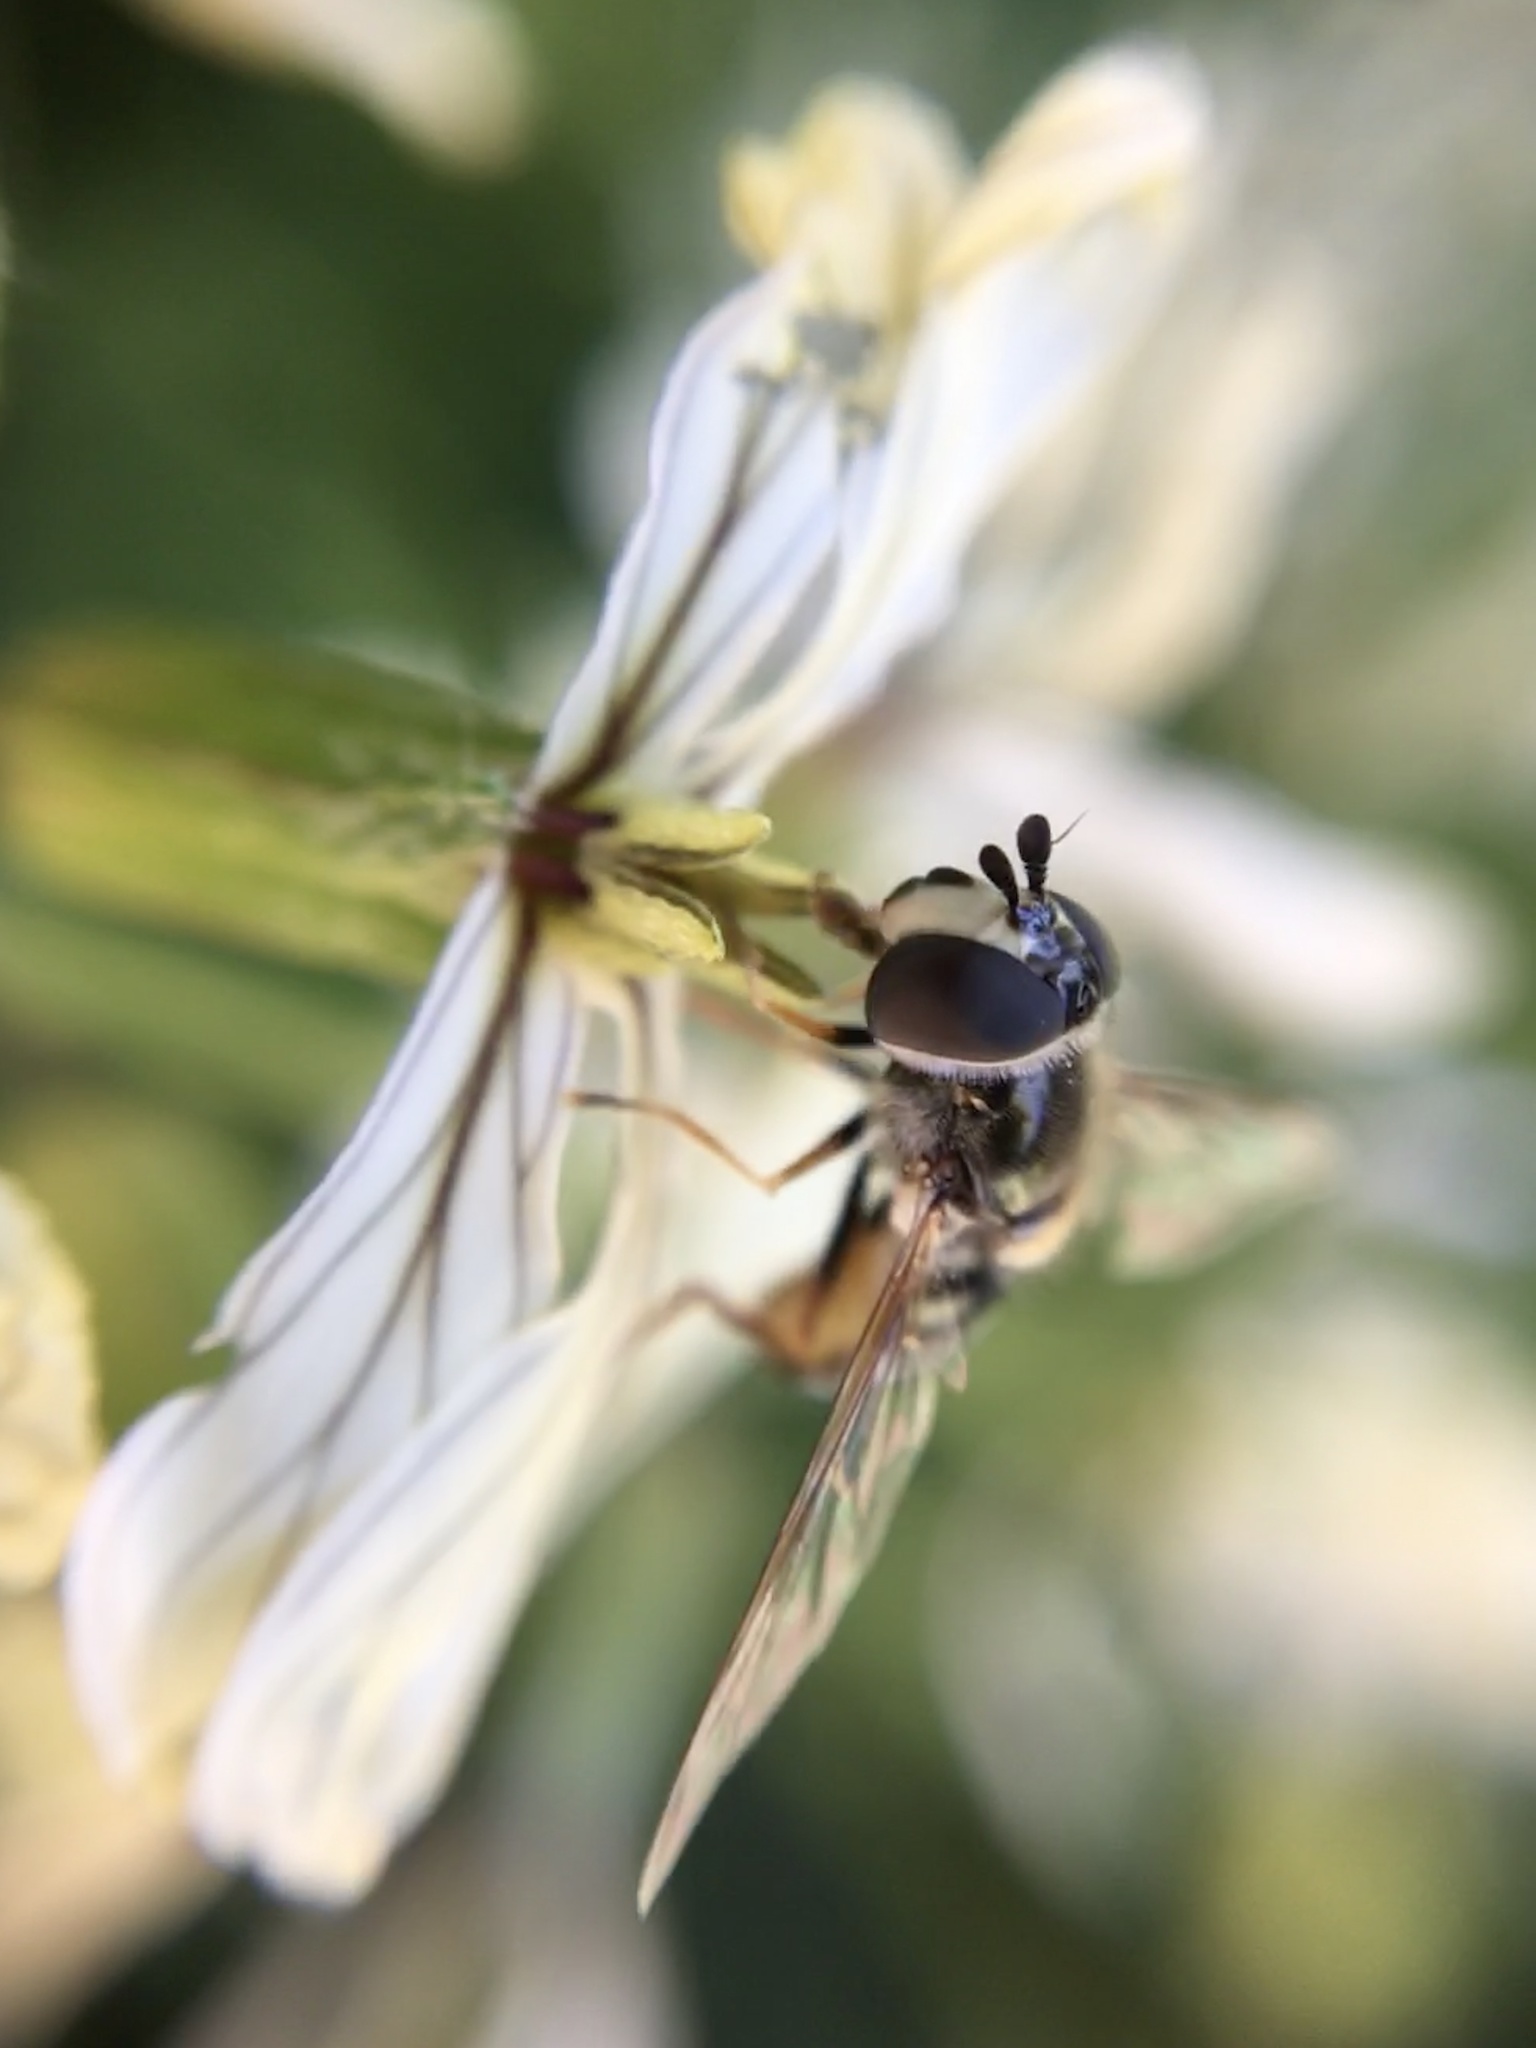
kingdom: Animalia
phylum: Arthropoda
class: Insecta
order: Diptera
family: Syrphidae
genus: Eupeodes
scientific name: Eupeodes volucris
